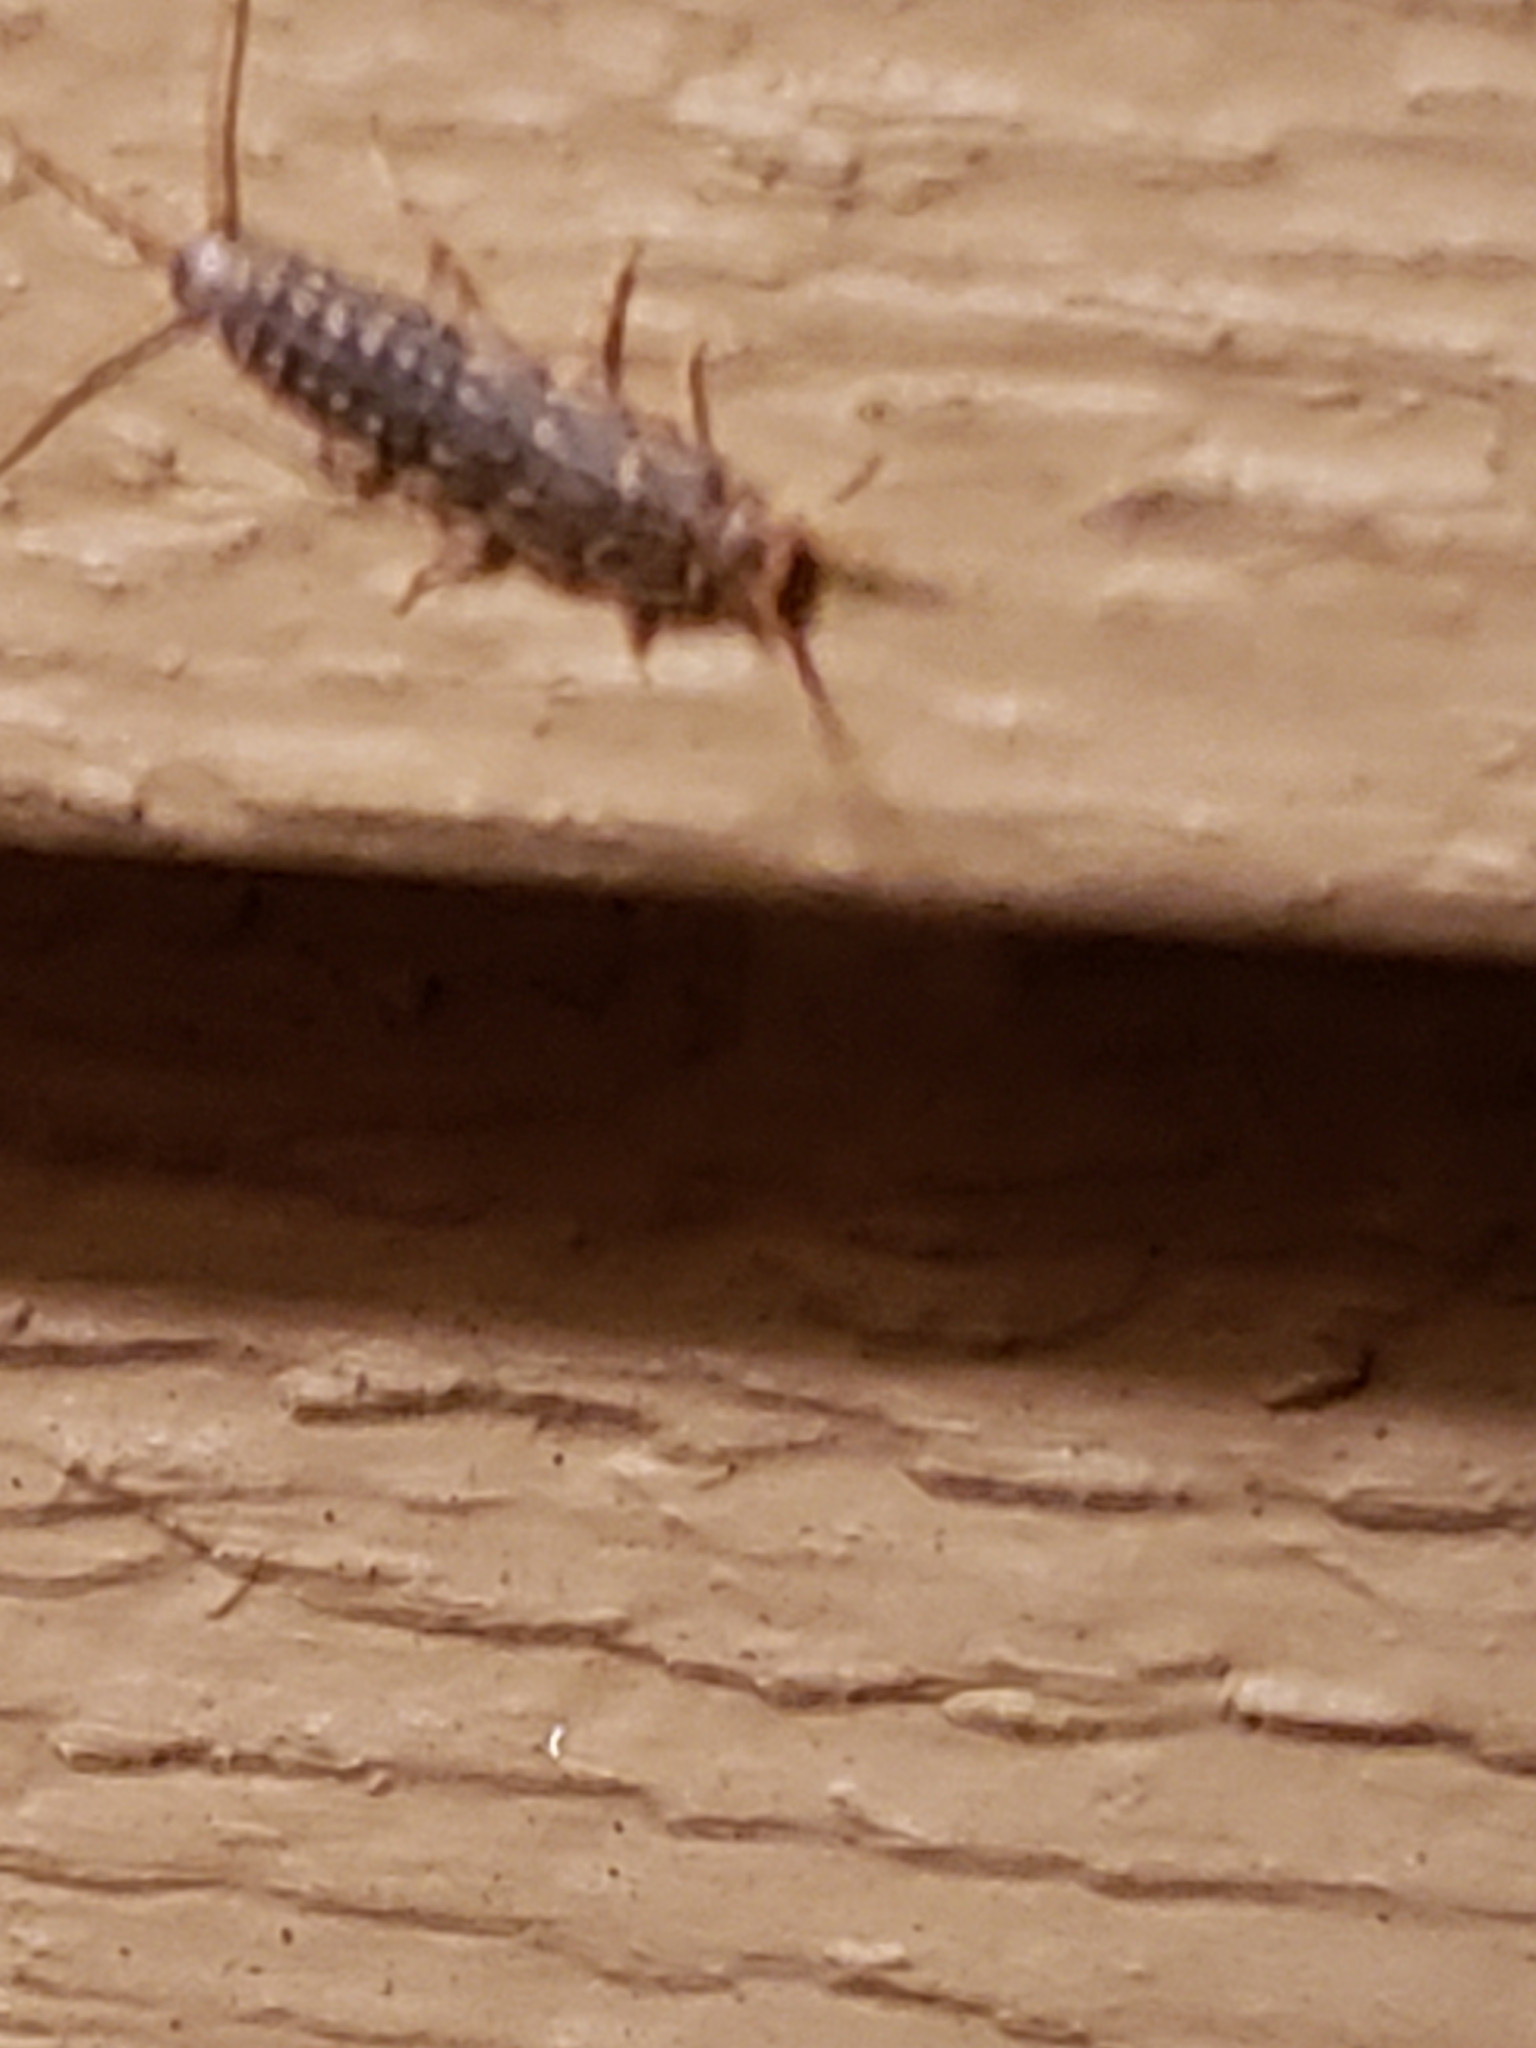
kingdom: Animalia
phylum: Arthropoda
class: Insecta
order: Zygentoma
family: Lepismatidae
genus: Ctenolepisma
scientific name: Ctenolepisma lineata
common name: Four-lined silverfish
